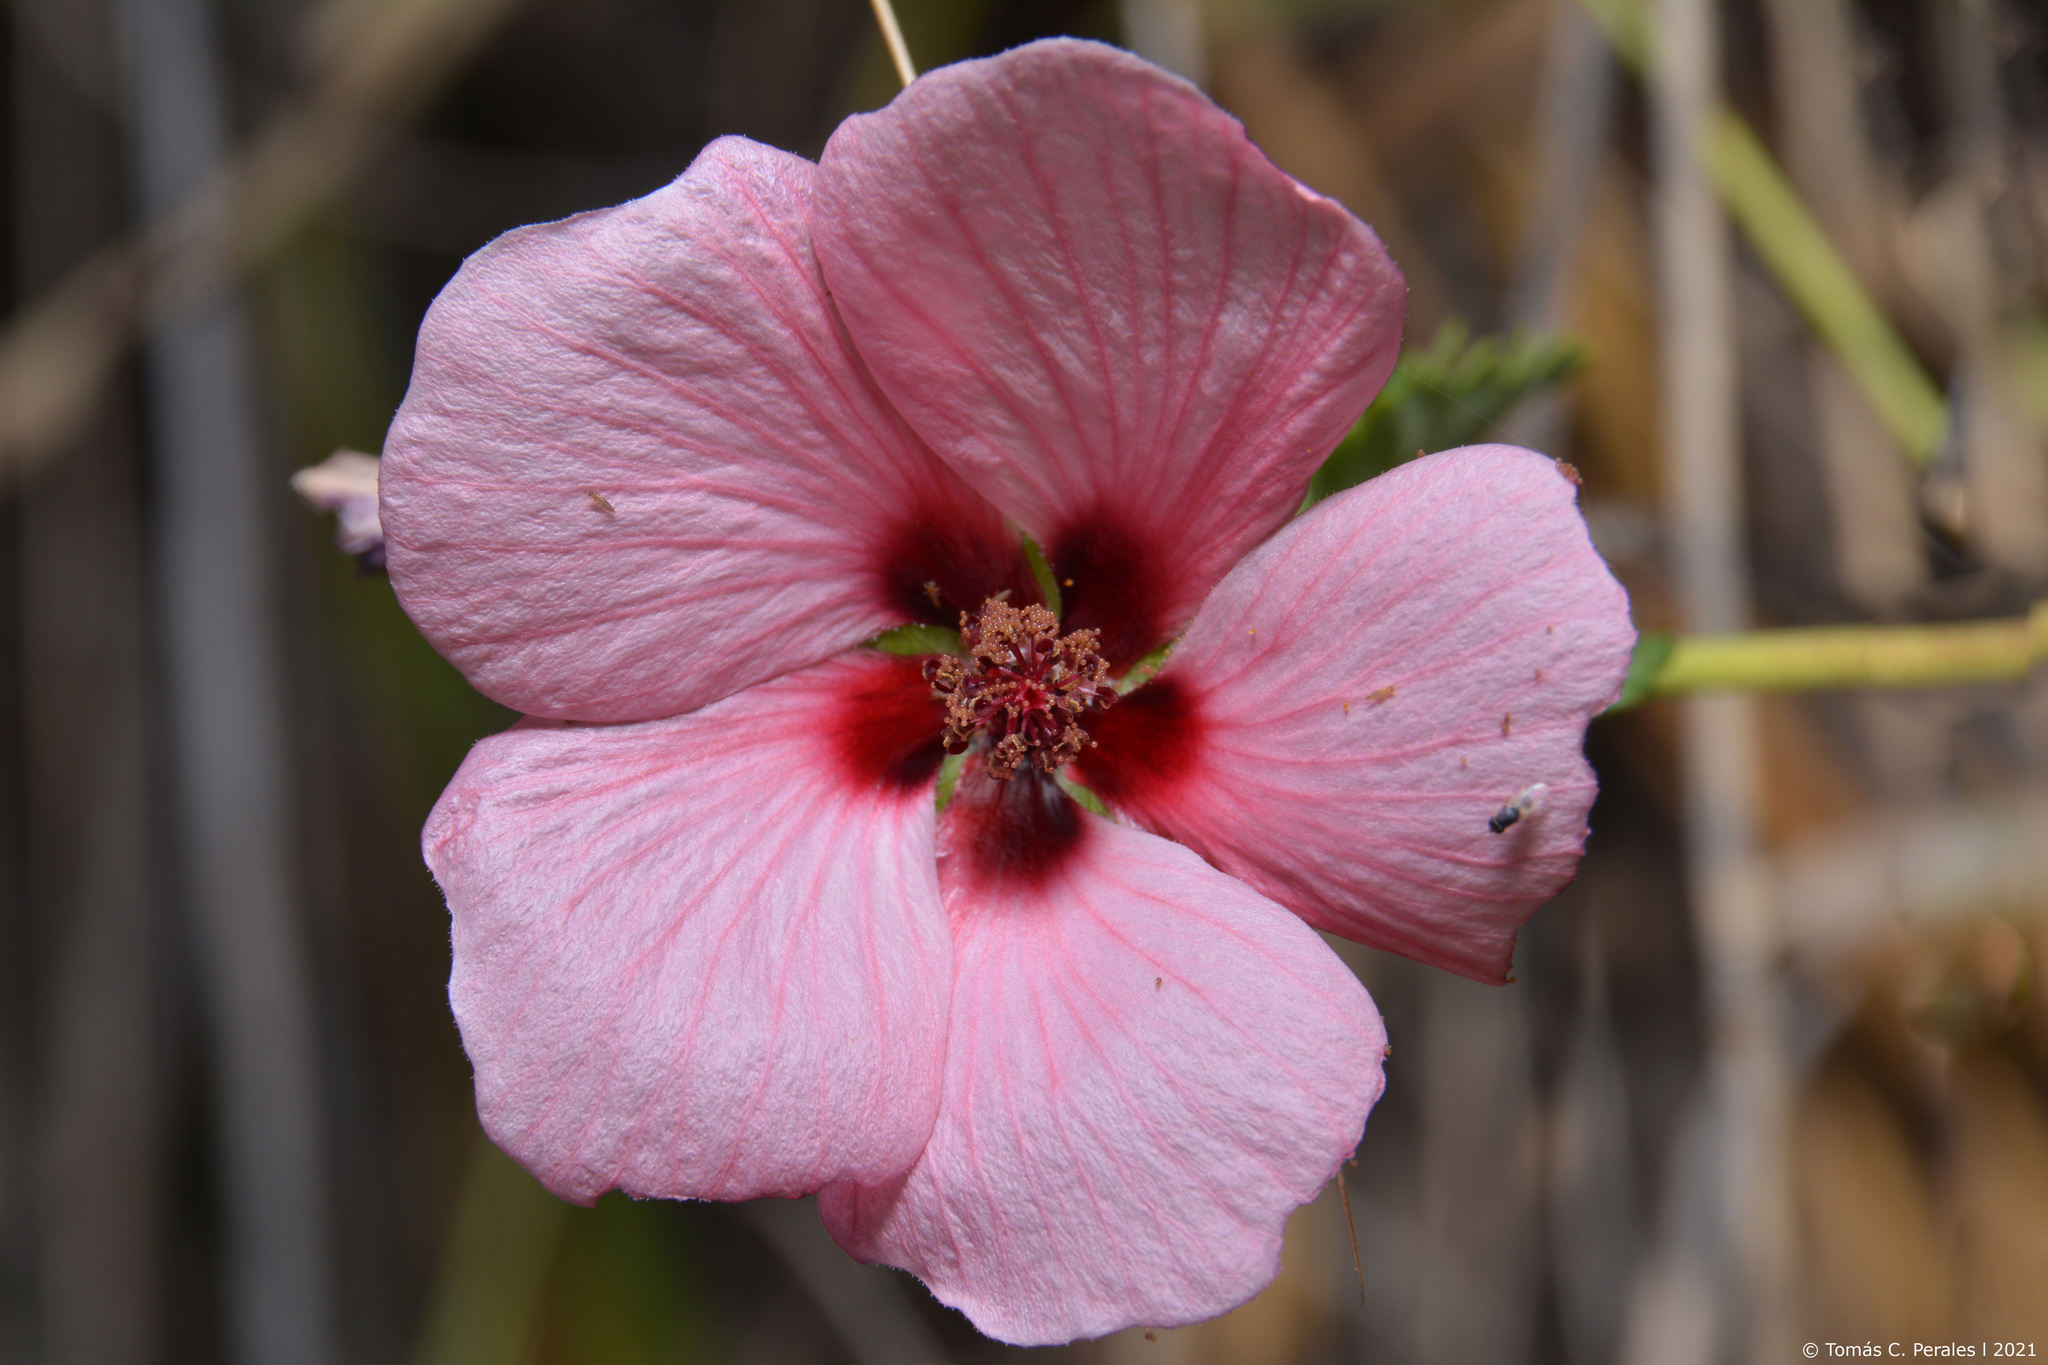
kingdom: Plantae
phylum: Tracheophyta
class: Magnoliopsida
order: Malvales
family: Malvaceae
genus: Pavonia
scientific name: Pavonia revoluta
